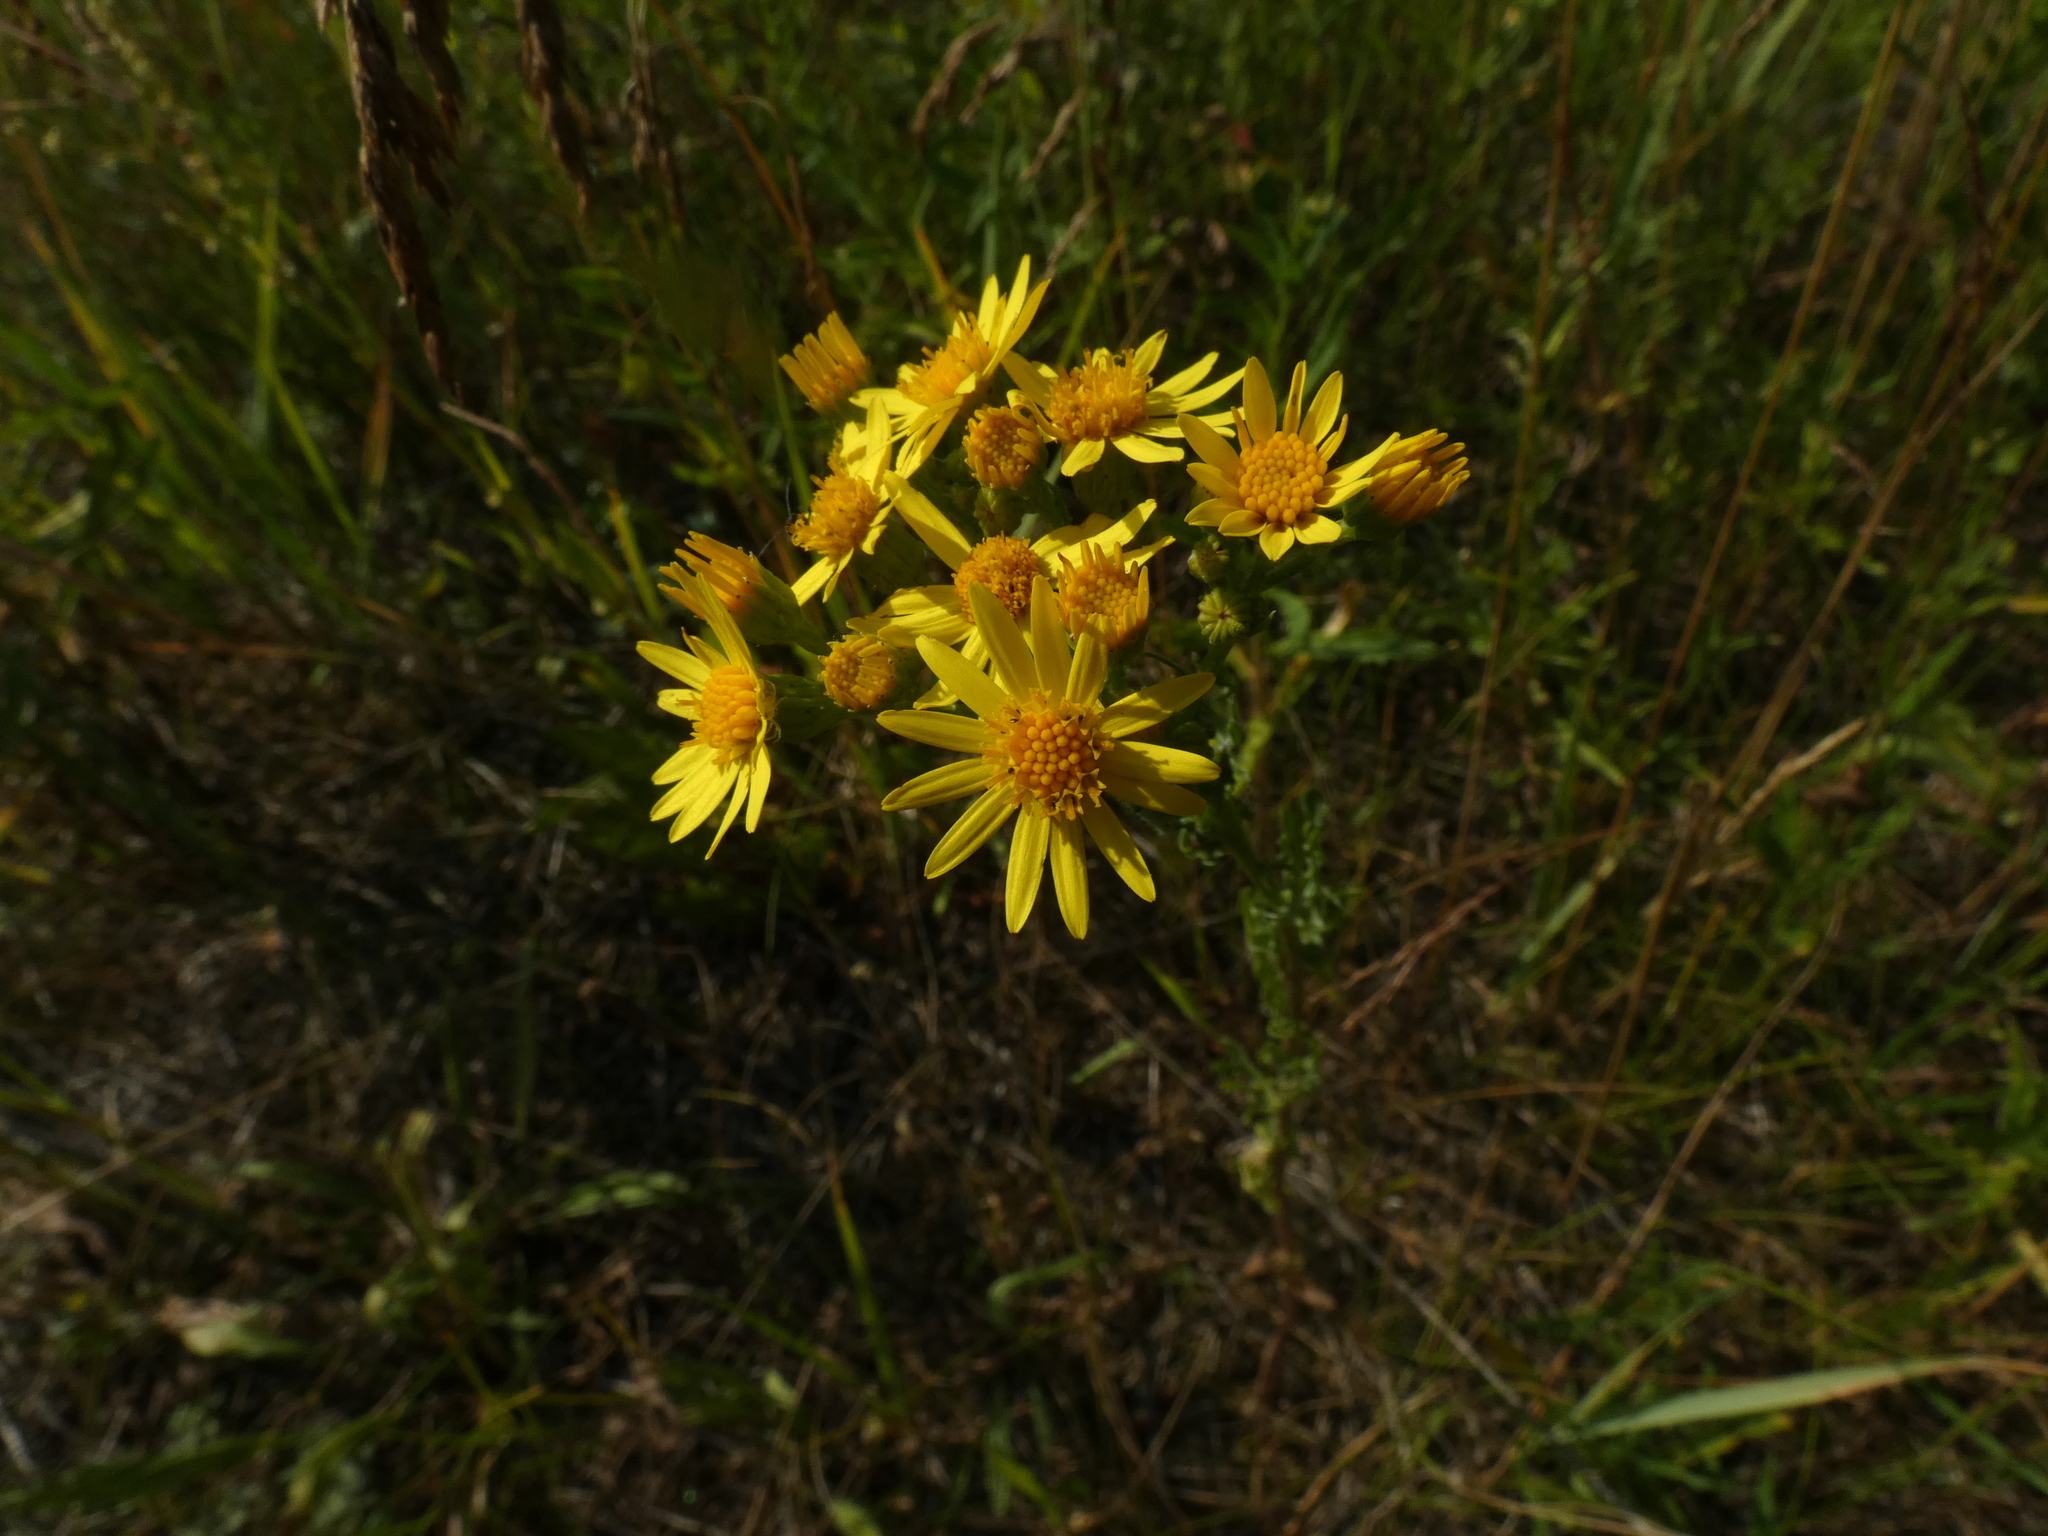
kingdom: Plantae
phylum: Tracheophyta
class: Magnoliopsida
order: Asterales
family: Asteraceae
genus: Jacobaea
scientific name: Jacobaea vulgaris
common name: Stinking willie
